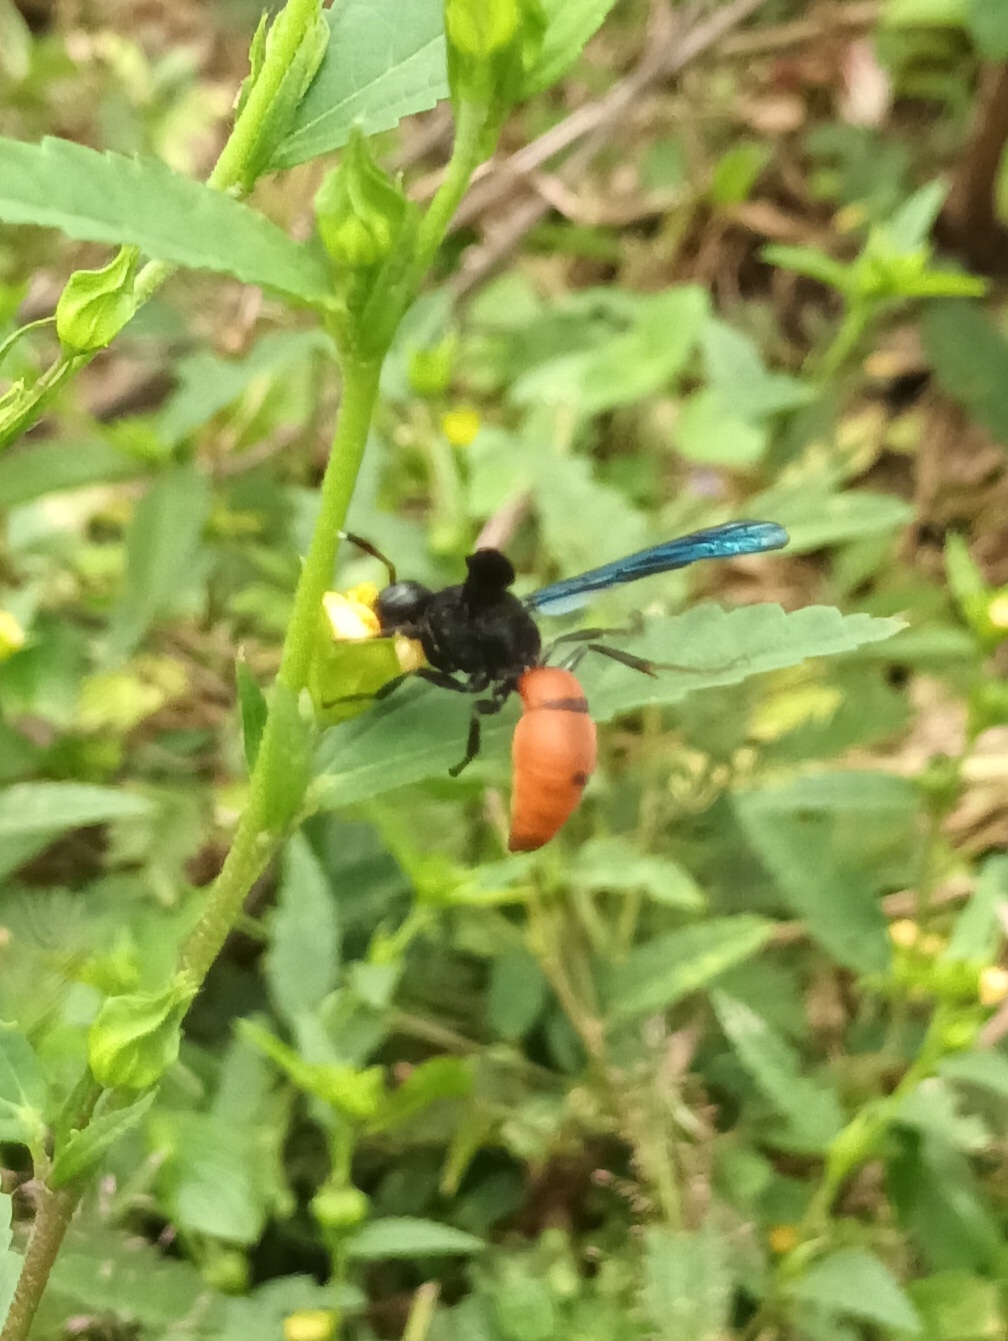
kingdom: Animalia
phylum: Arthropoda
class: Insecta
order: Hymenoptera
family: Eumenidae
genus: Anterhynchium
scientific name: Anterhynchium abdominale
